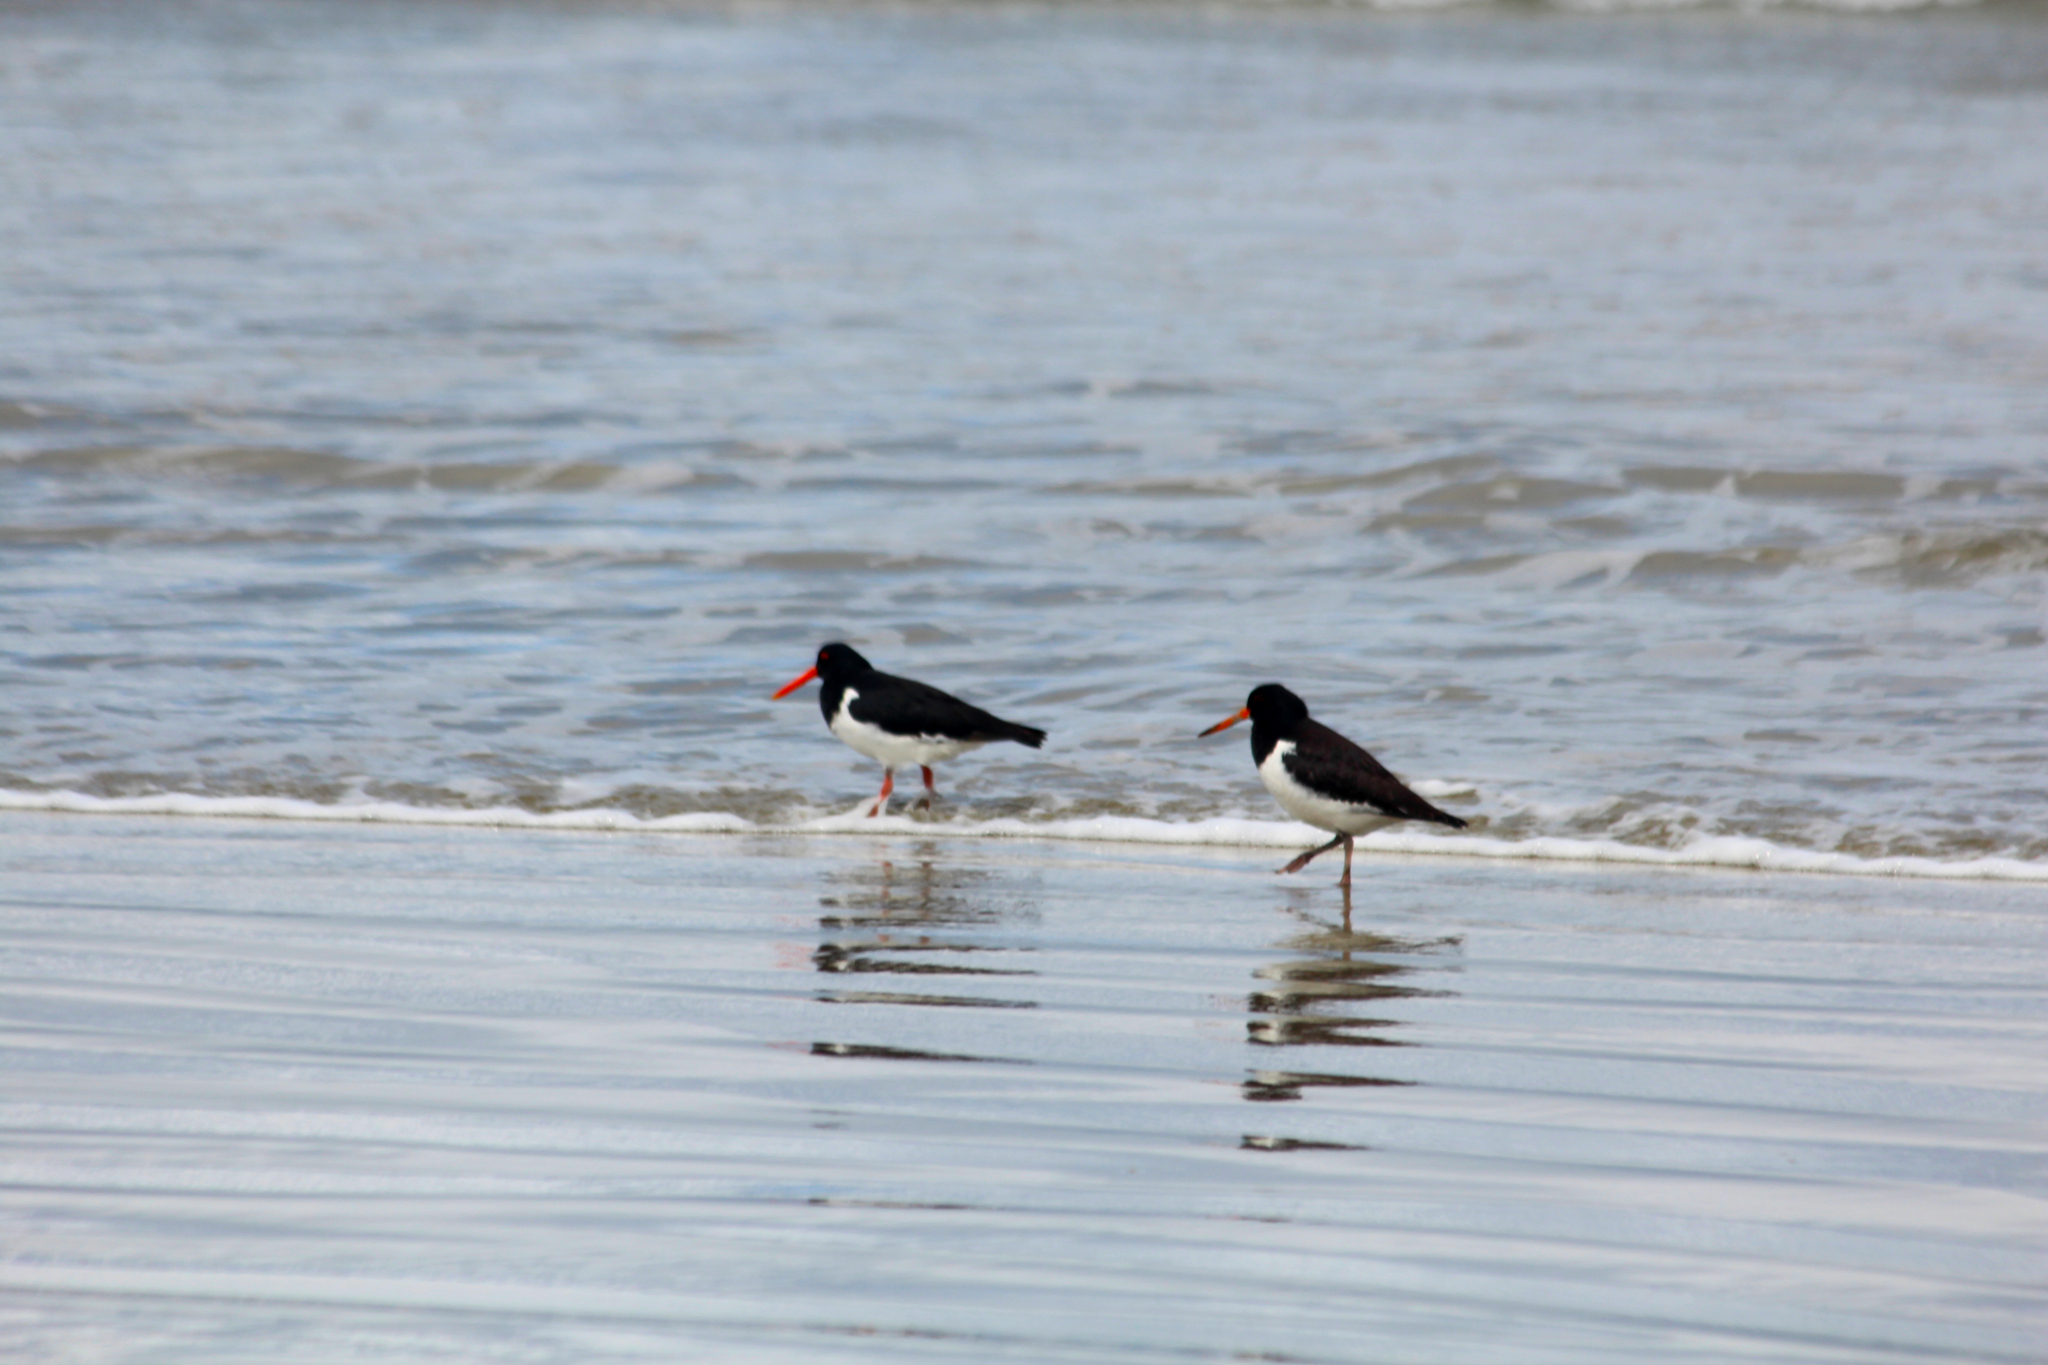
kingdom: Animalia
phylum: Chordata
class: Aves
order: Charadriiformes
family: Haematopodidae
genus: Haematopus
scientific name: Haematopus finschi
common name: South island oystercatcher
